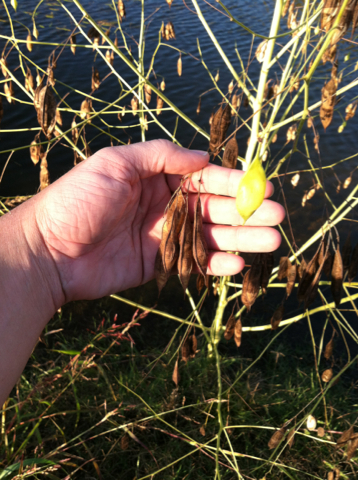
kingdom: Plantae
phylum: Tracheophyta
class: Magnoliopsida
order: Fabales
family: Fabaceae
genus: Sesbania
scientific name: Sesbania vesicaria
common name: Bagpod
